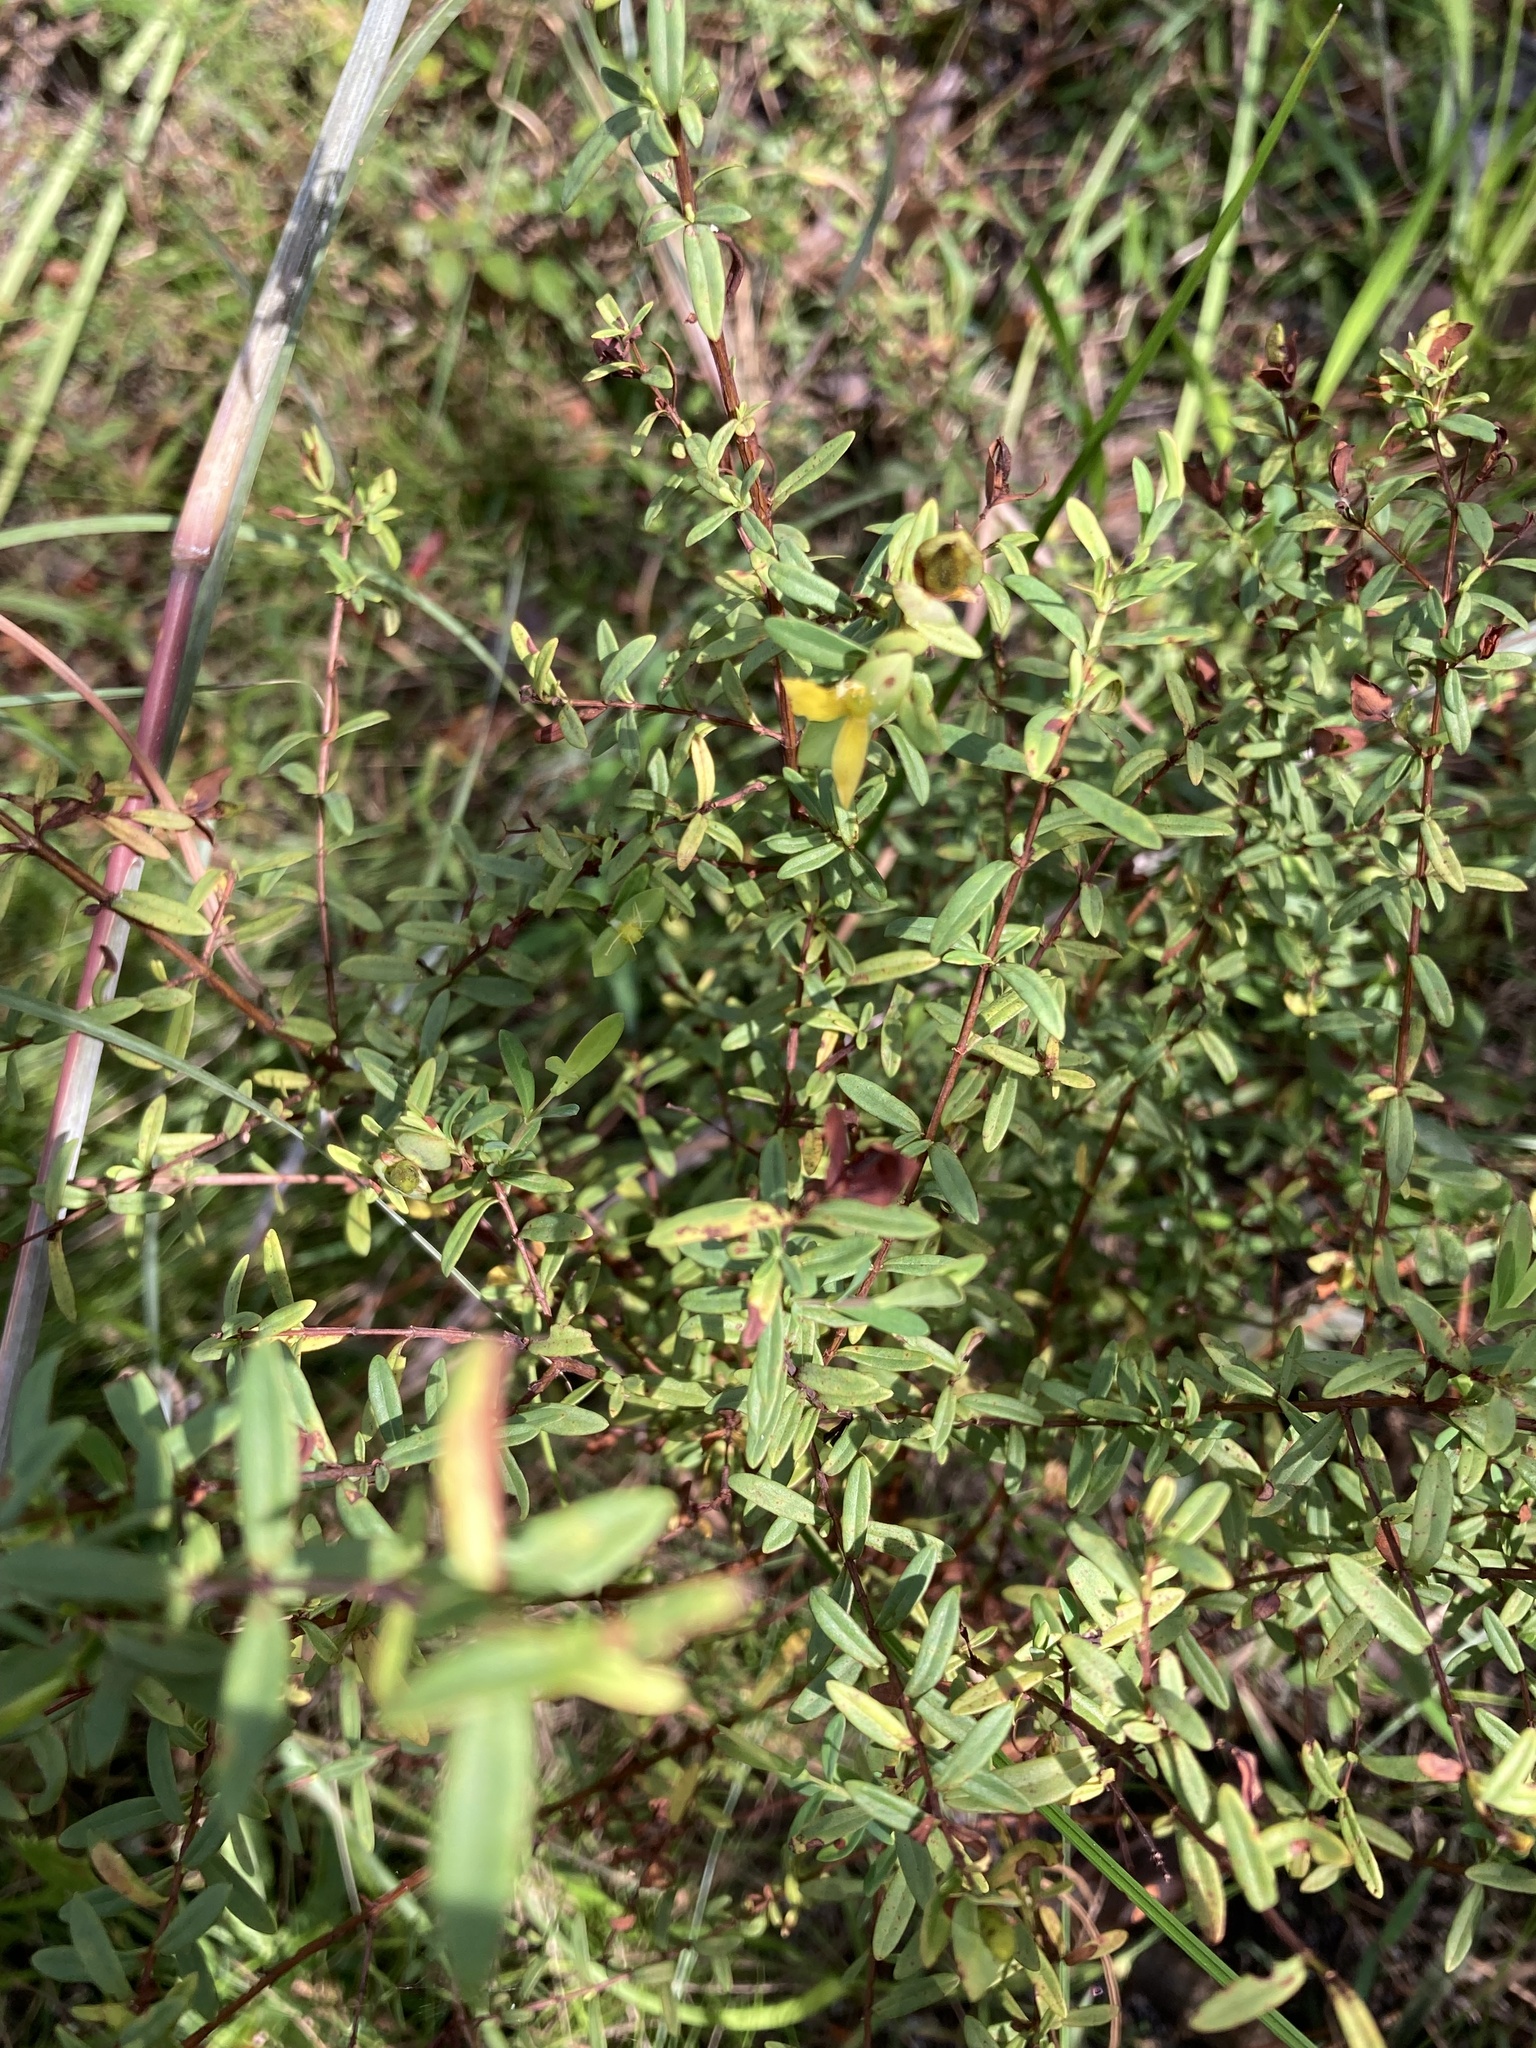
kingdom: Plantae
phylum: Tracheophyta
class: Magnoliopsida
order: Malpighiales
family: Hypericaceae
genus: Hypericum
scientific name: Hypericum hypericoides
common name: St. andrew's cross
